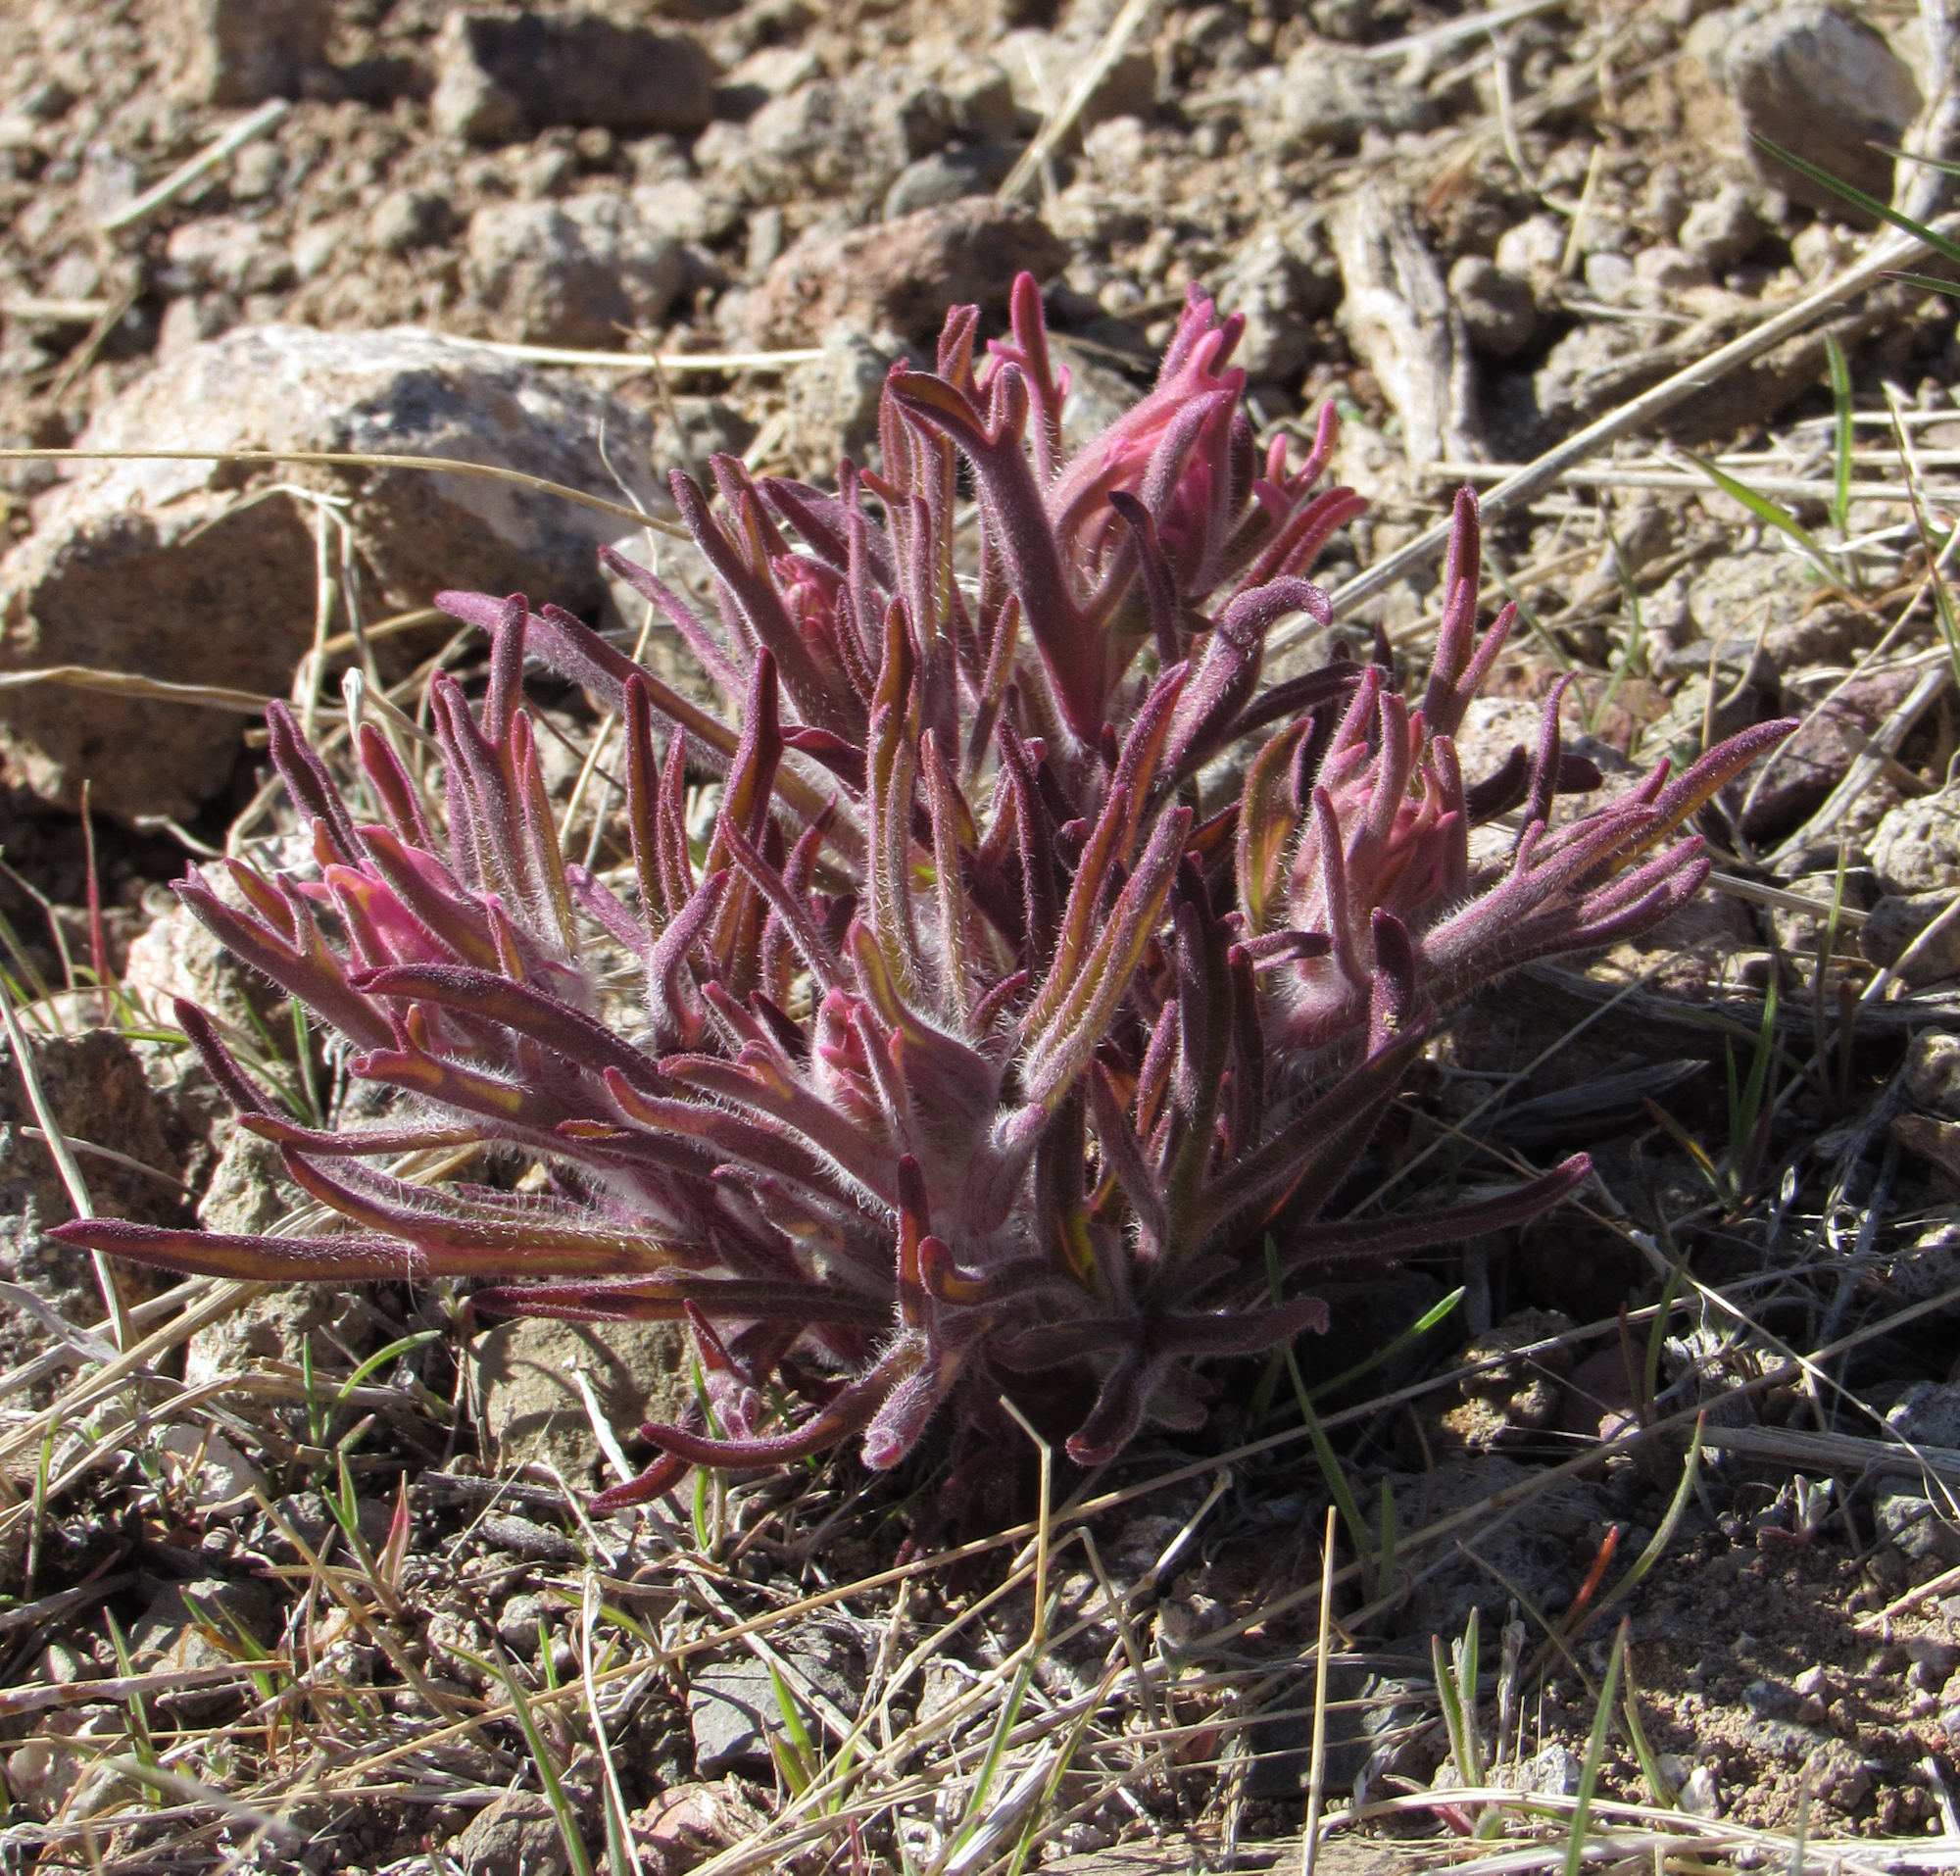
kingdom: Plantae
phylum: Tracheophyta
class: Magnoliopsida
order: Lamiales
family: Orobanchaceae
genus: Castilleja
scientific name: Castilleja angustifolia
